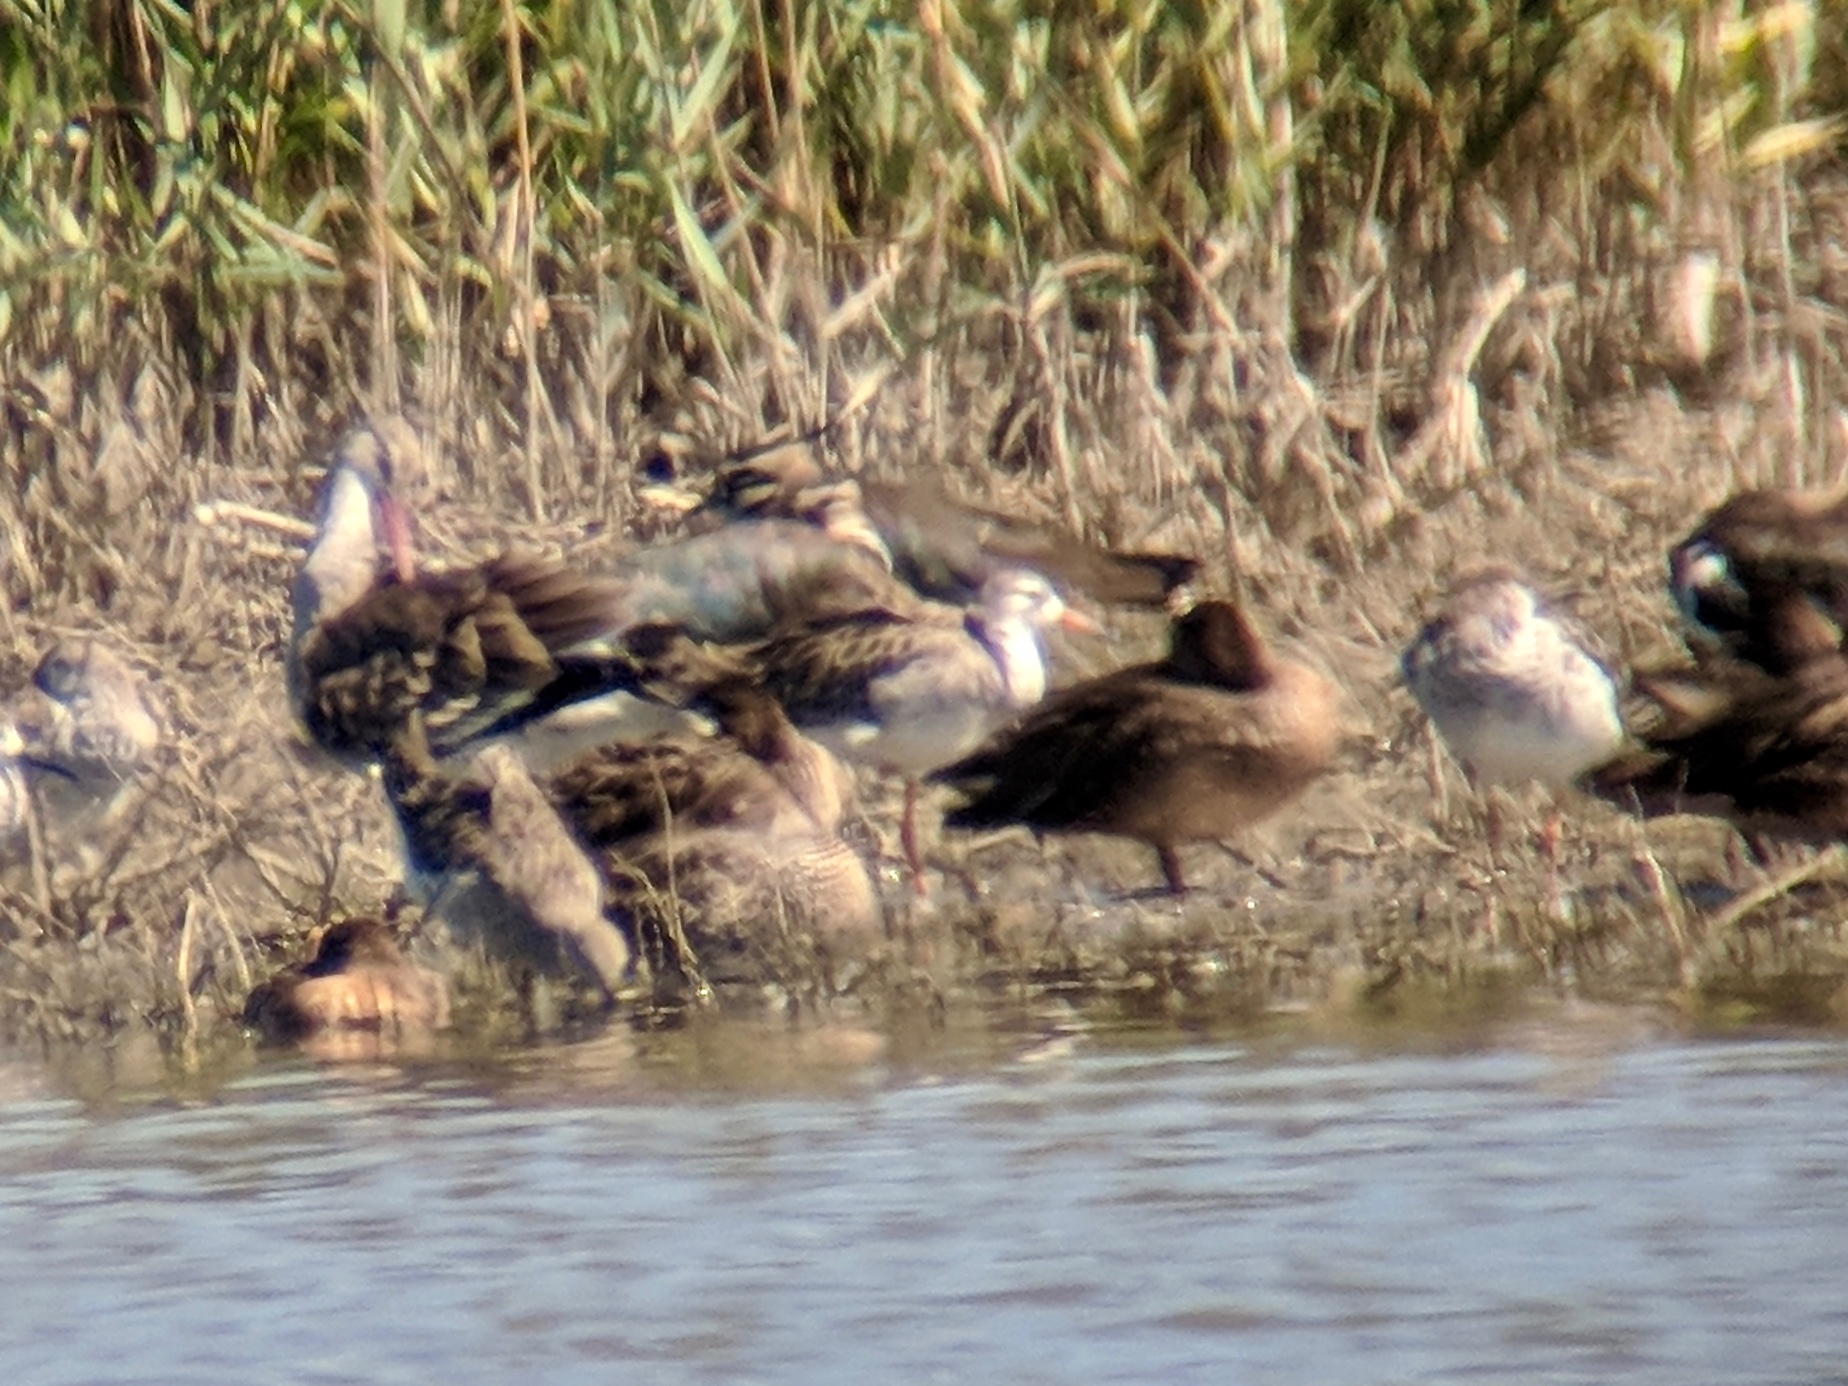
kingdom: Animalia
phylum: Chordata
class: Aves
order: Charadriiformes
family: Scolopacidae
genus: Calidris
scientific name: Calidris pugnax
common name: Ruff
